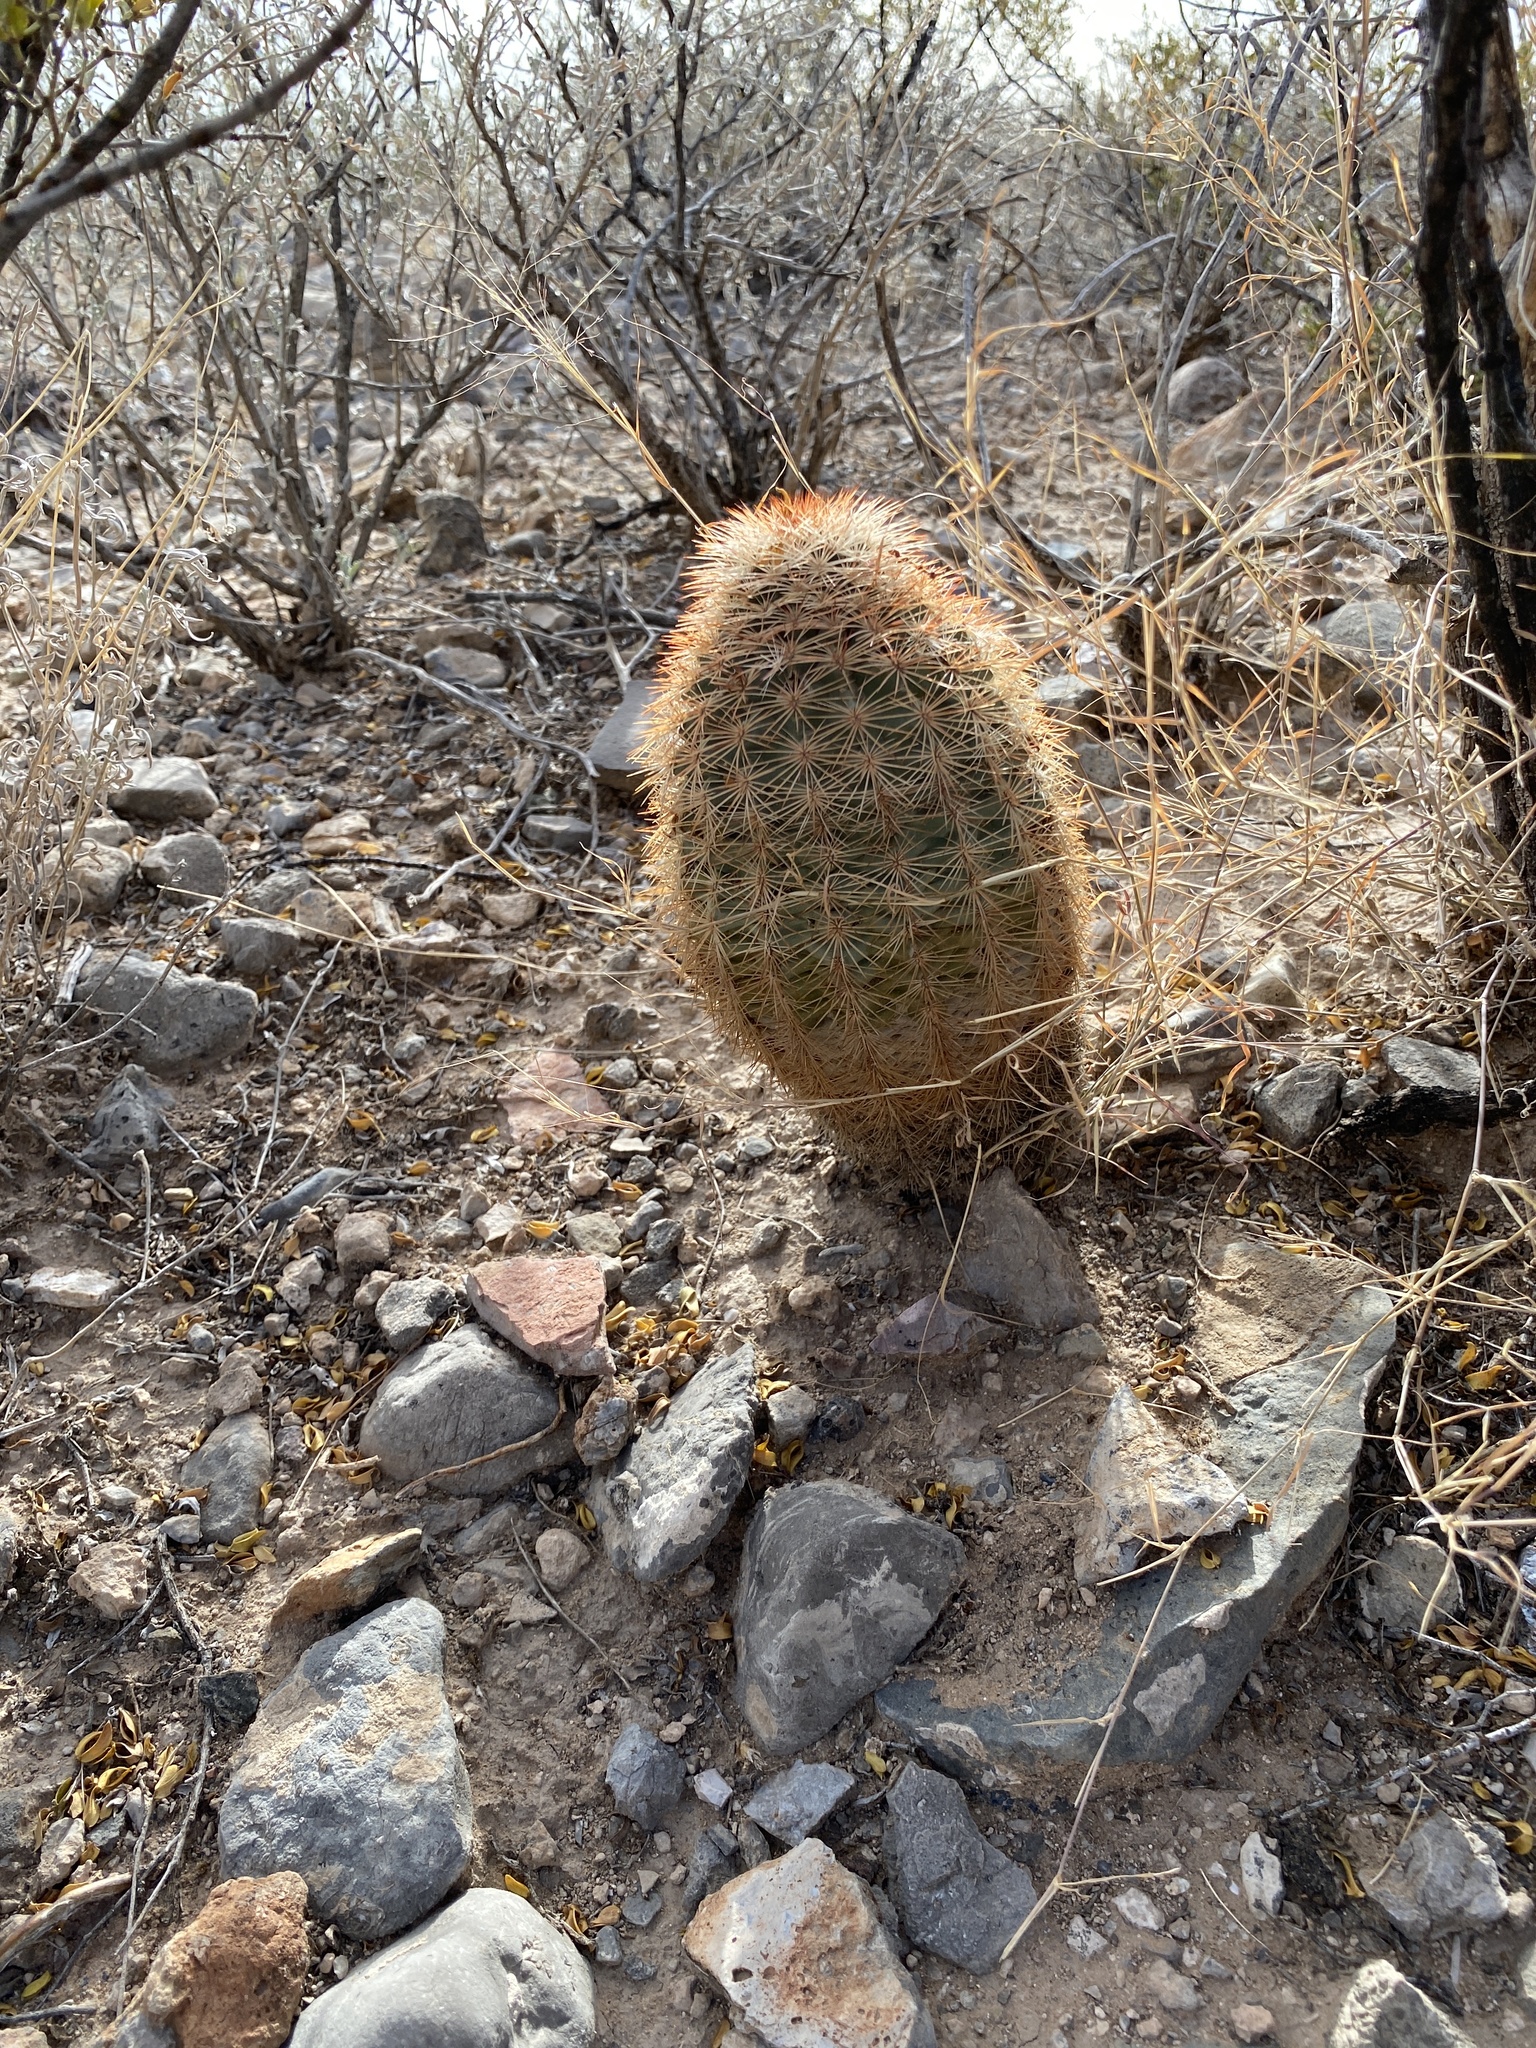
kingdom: Plantae
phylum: Tracheophyta
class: Magnoliopsida
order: Caryophyllales
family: Cactaceae
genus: Echinocereus
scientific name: Echinocereus dasyacanthus
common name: Spiny hedgehog cactus
